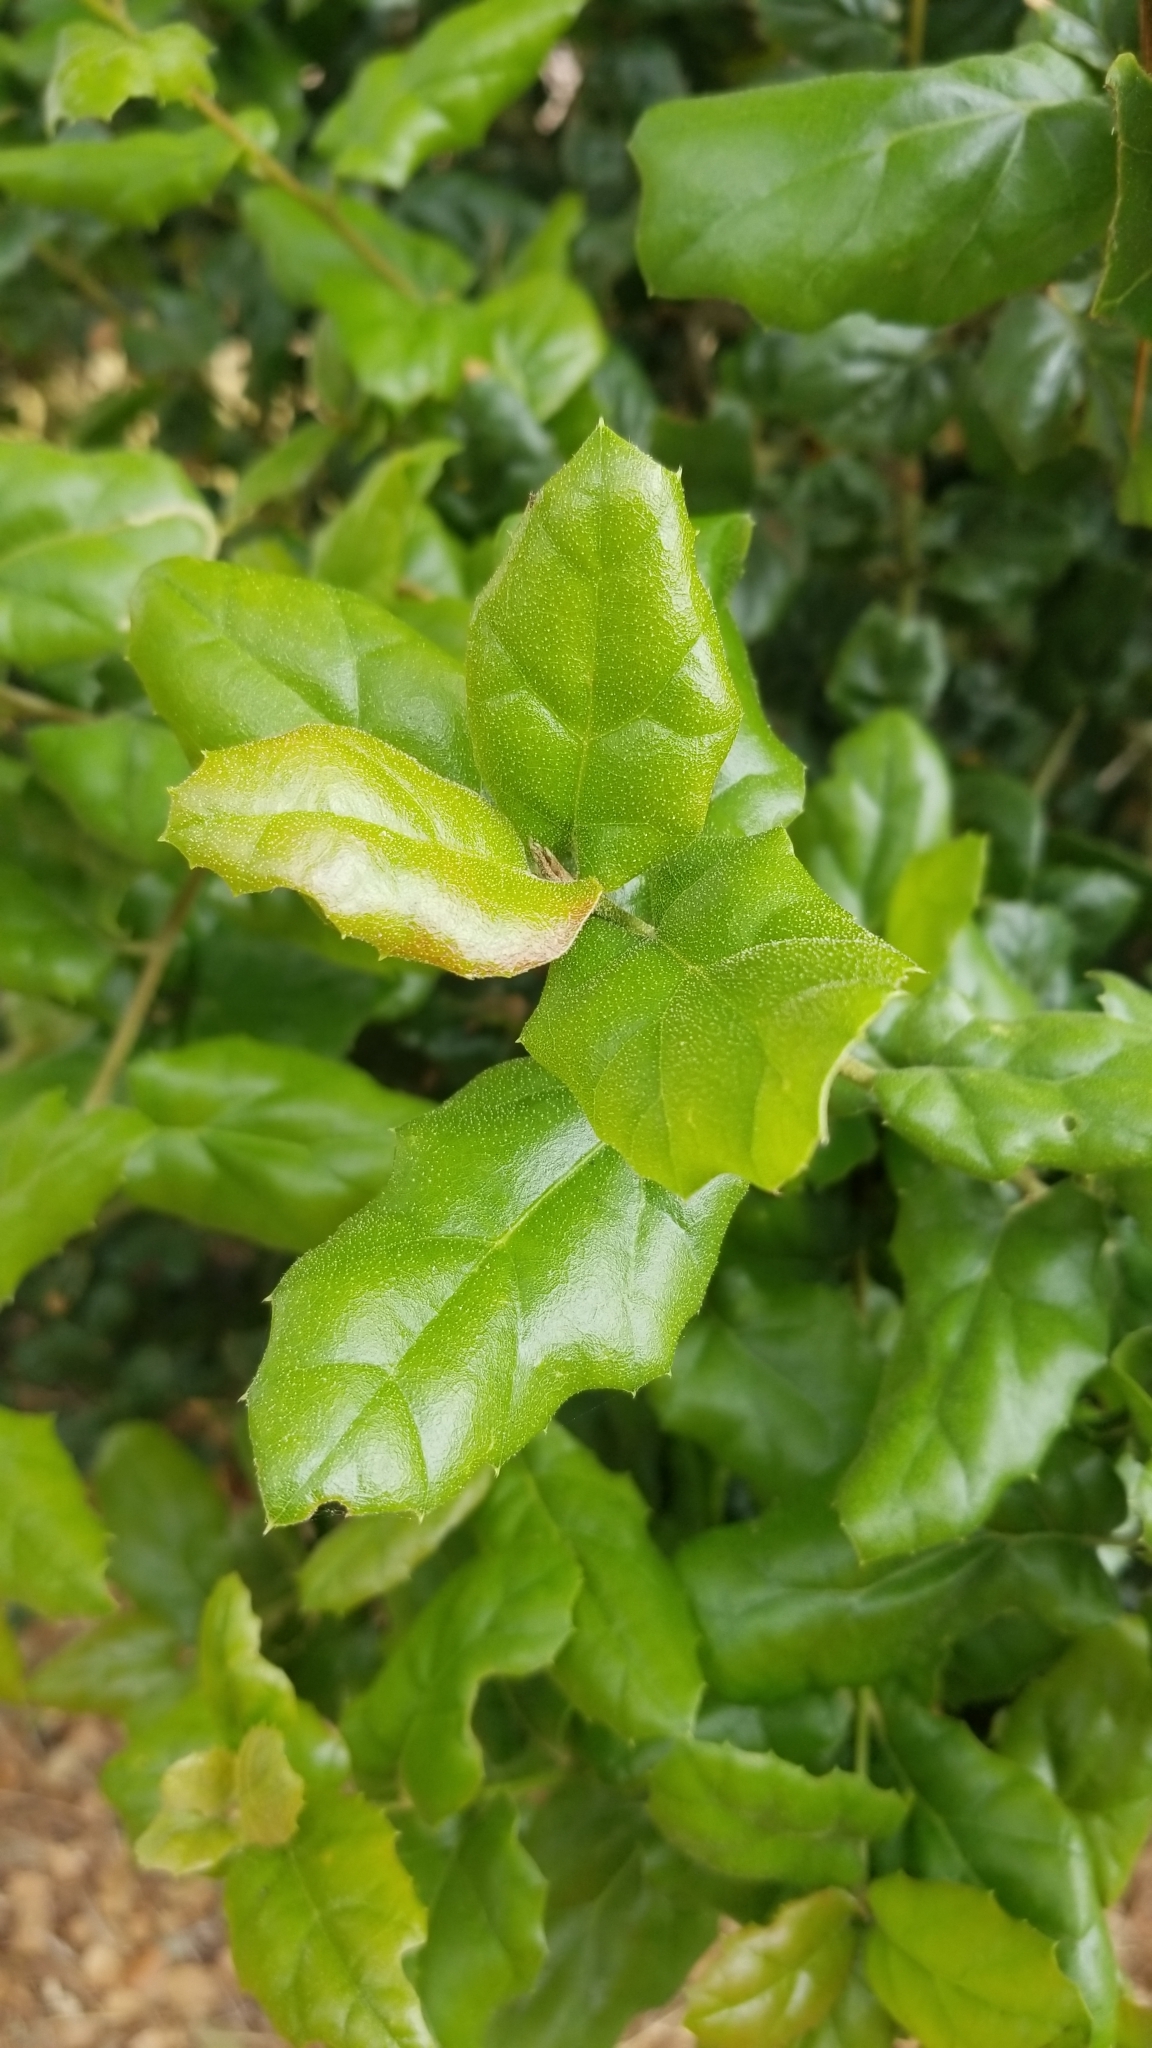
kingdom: Plantae
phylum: Tracheophyta
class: Magnoliopsida
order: Fagales
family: Fagaceae
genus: Quercus
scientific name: Quercus agrifolia
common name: California live oak
